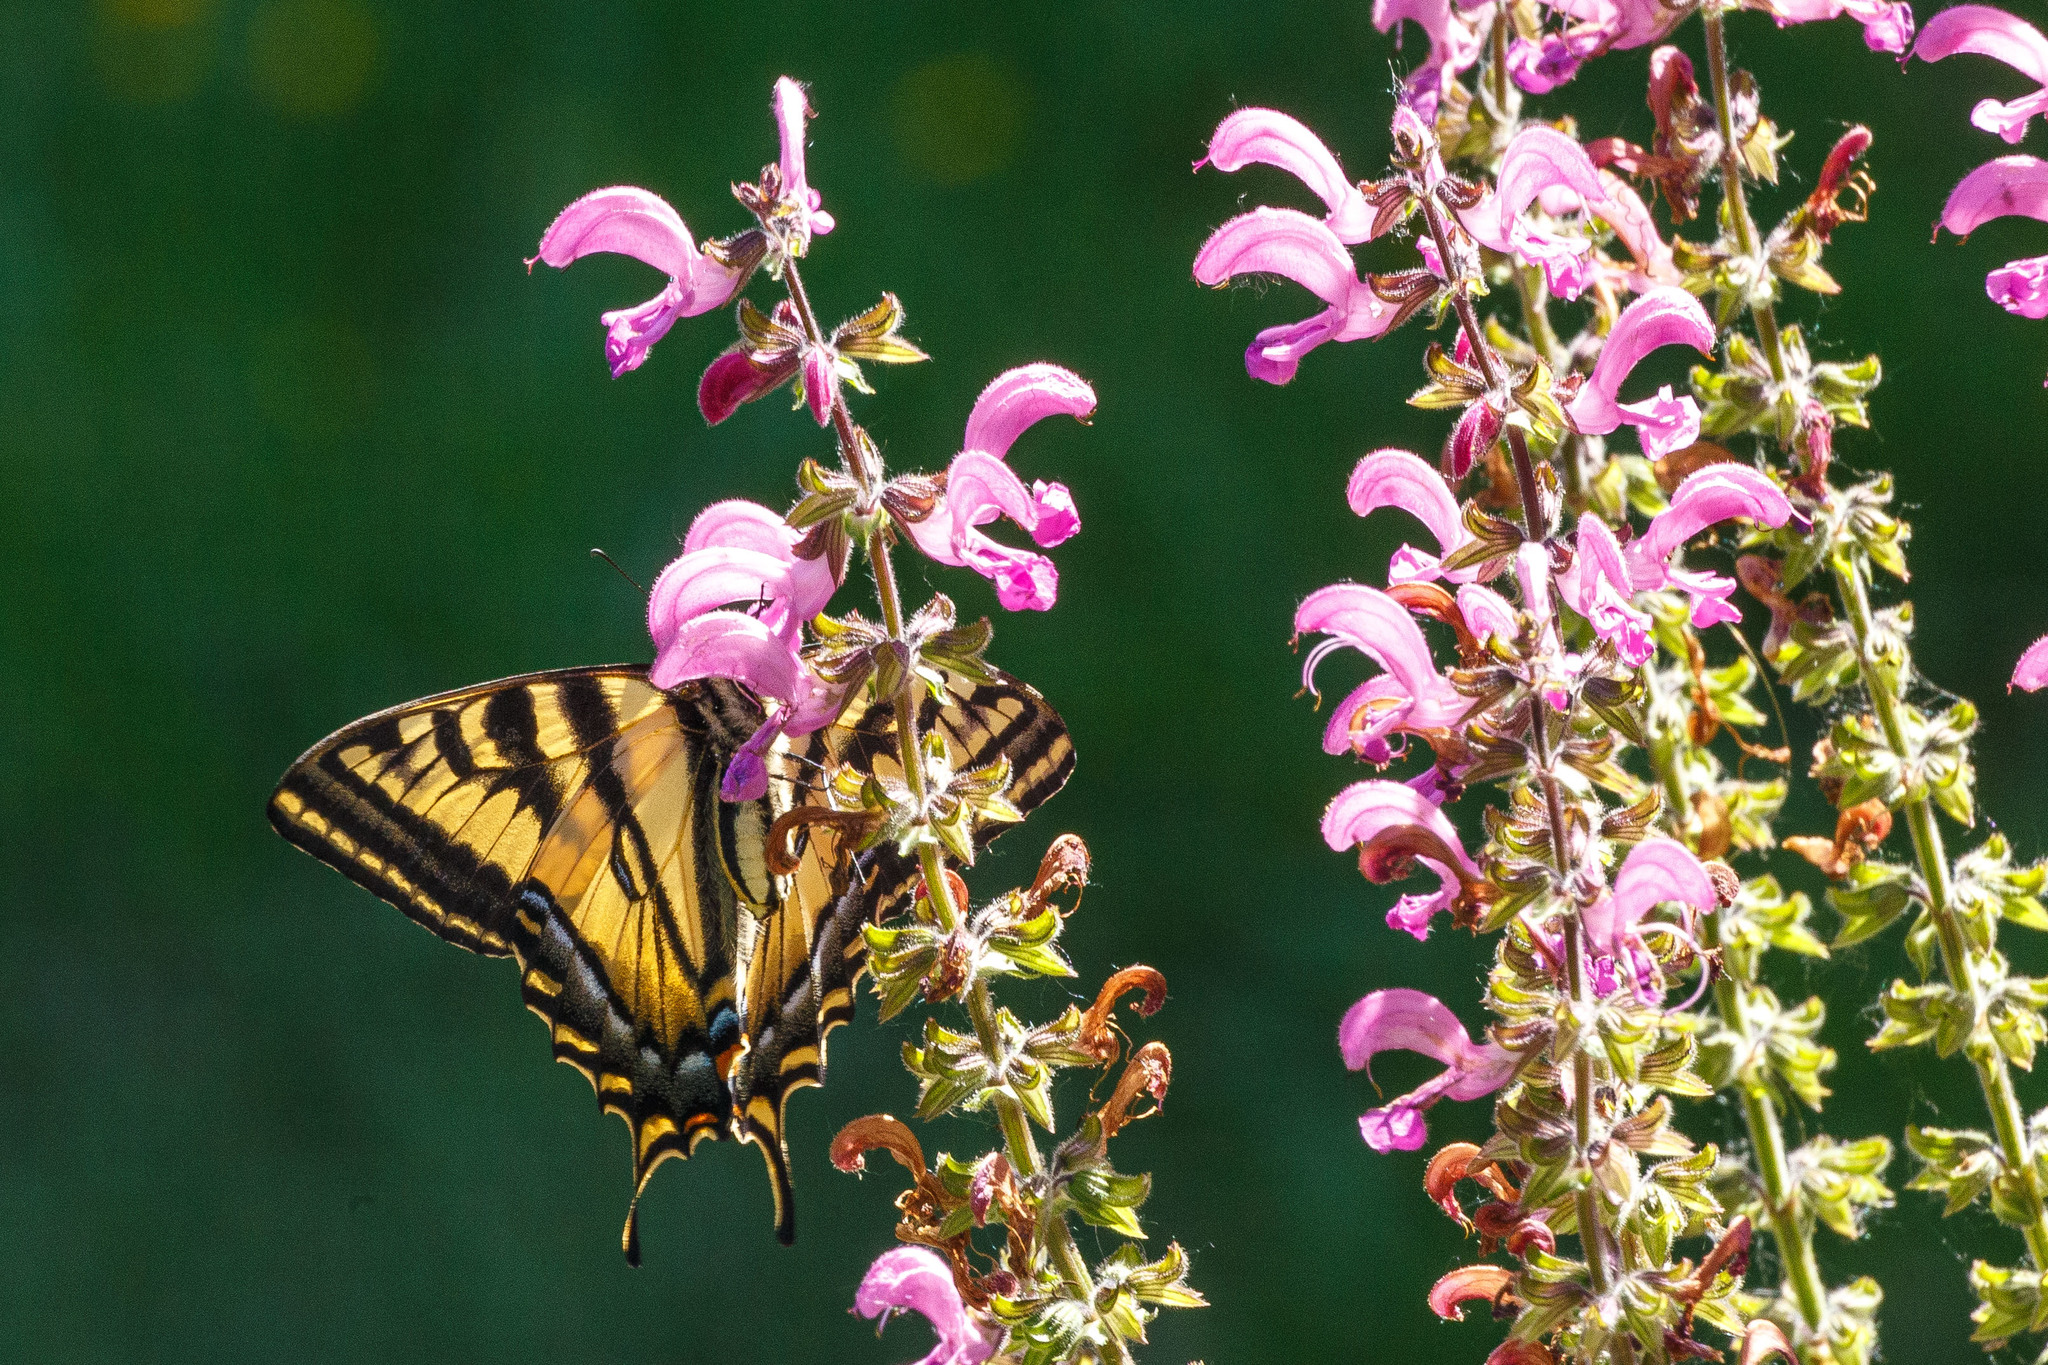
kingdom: Animalia
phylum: Arthropoda
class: Insecta
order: Lepidoptera
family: Papilionidae
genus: Papilio
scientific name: Papilio rutulus
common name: Western tiger swallowtail
